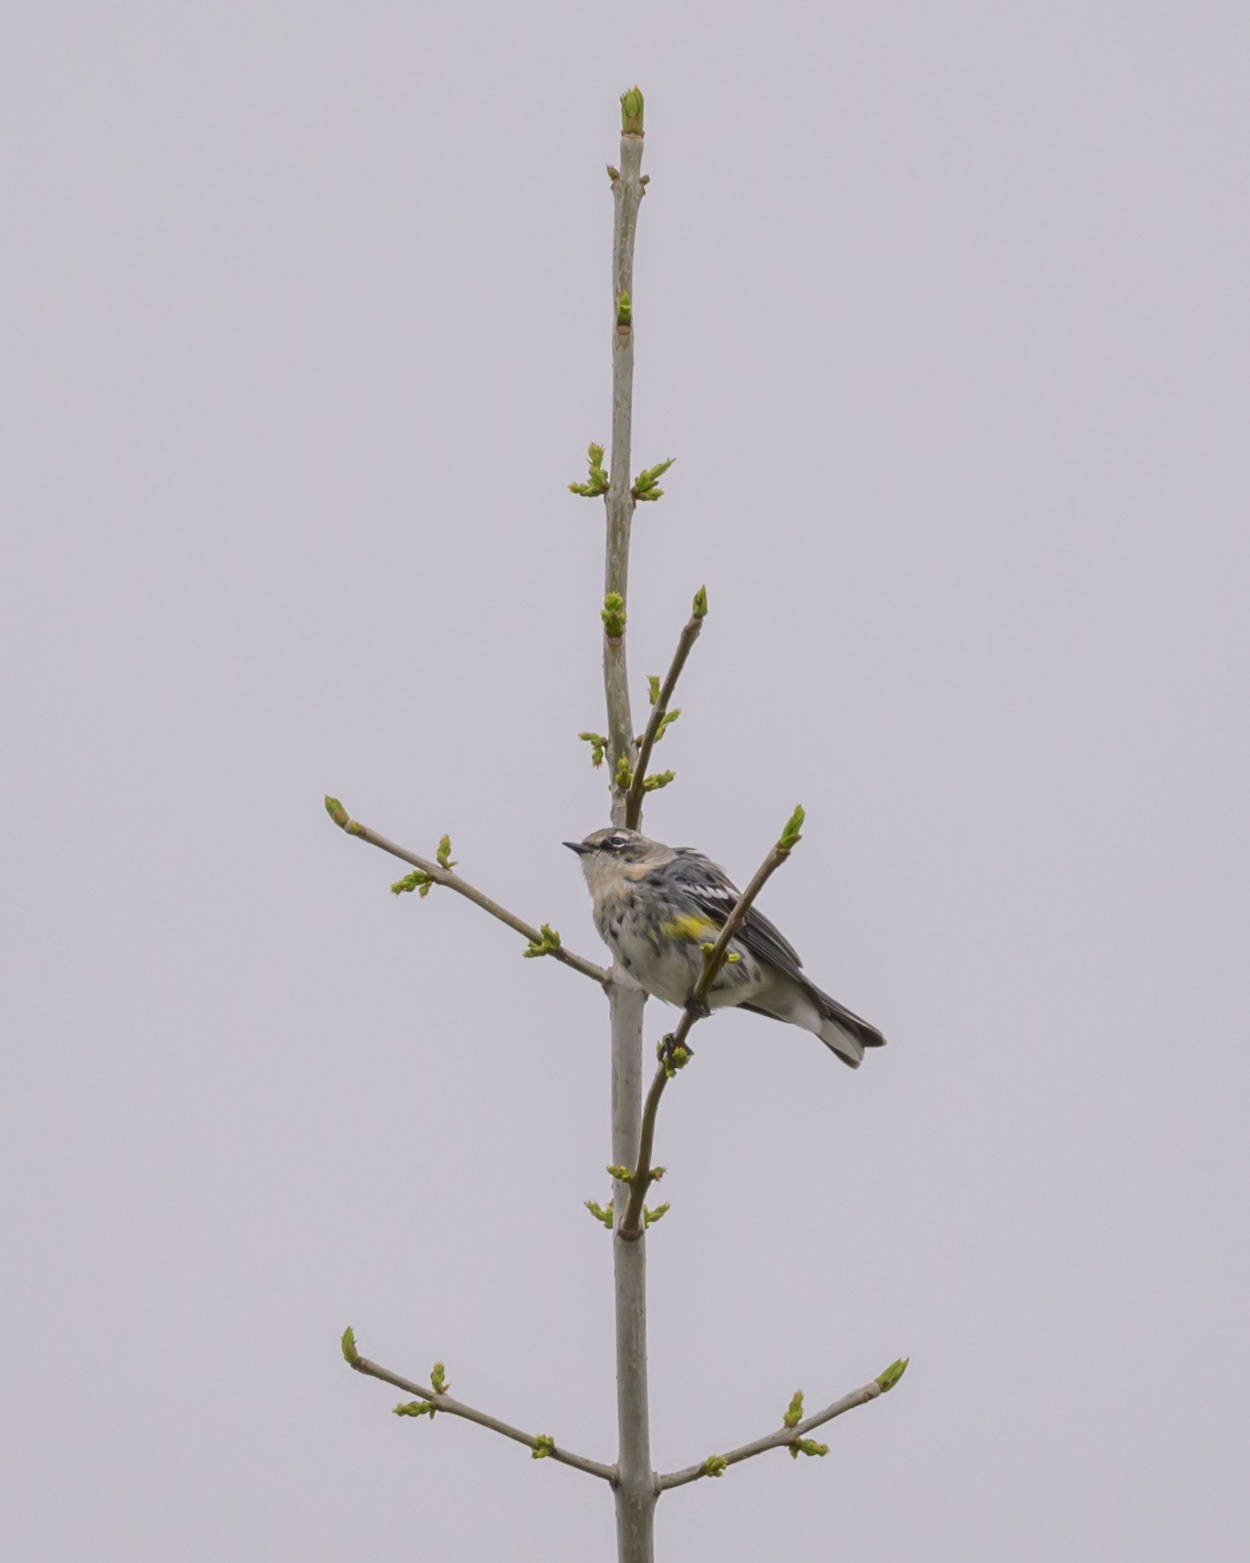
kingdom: Animalia
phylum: Chordata
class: Aves
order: Passeriformes
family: Parulidae
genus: Setophaga
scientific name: Setophaga coronata
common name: Myrtle warbler
